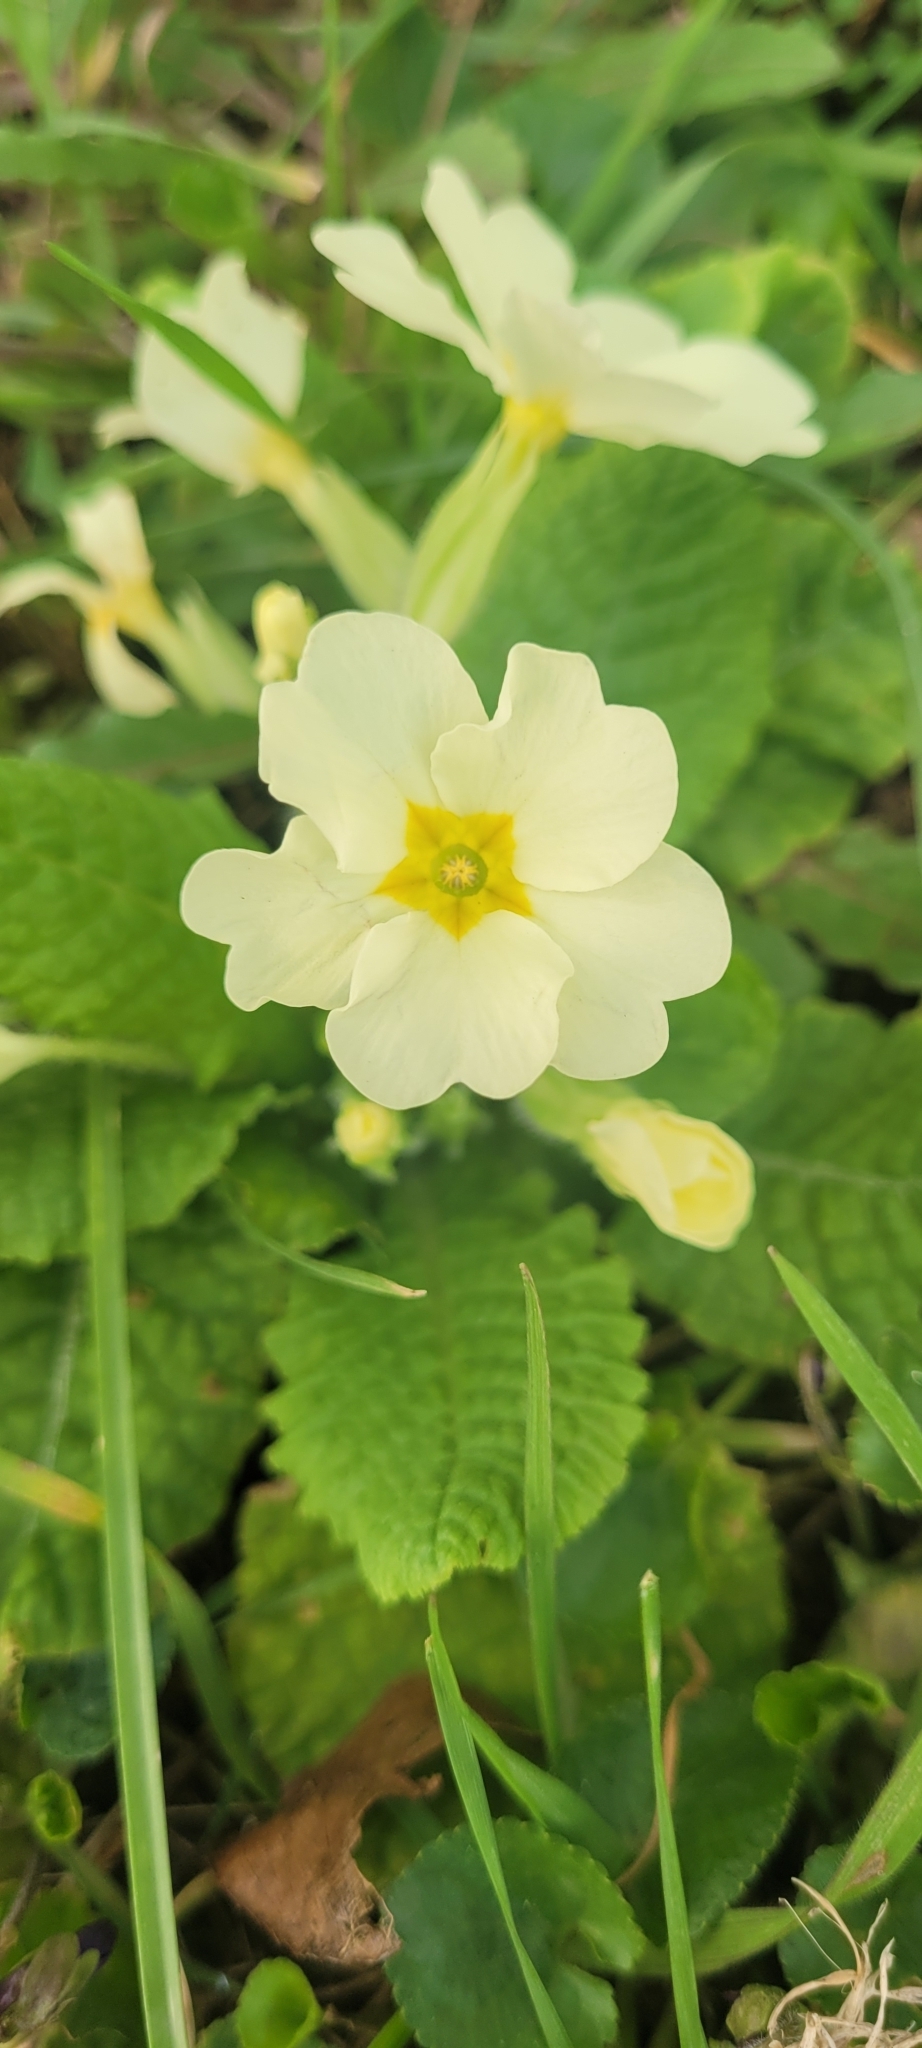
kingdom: Plantae
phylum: Tracheophyta
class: Magnoliopsida
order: Ericales
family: Primulaceae
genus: Primula
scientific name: Primula vulgaris
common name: Primrose
